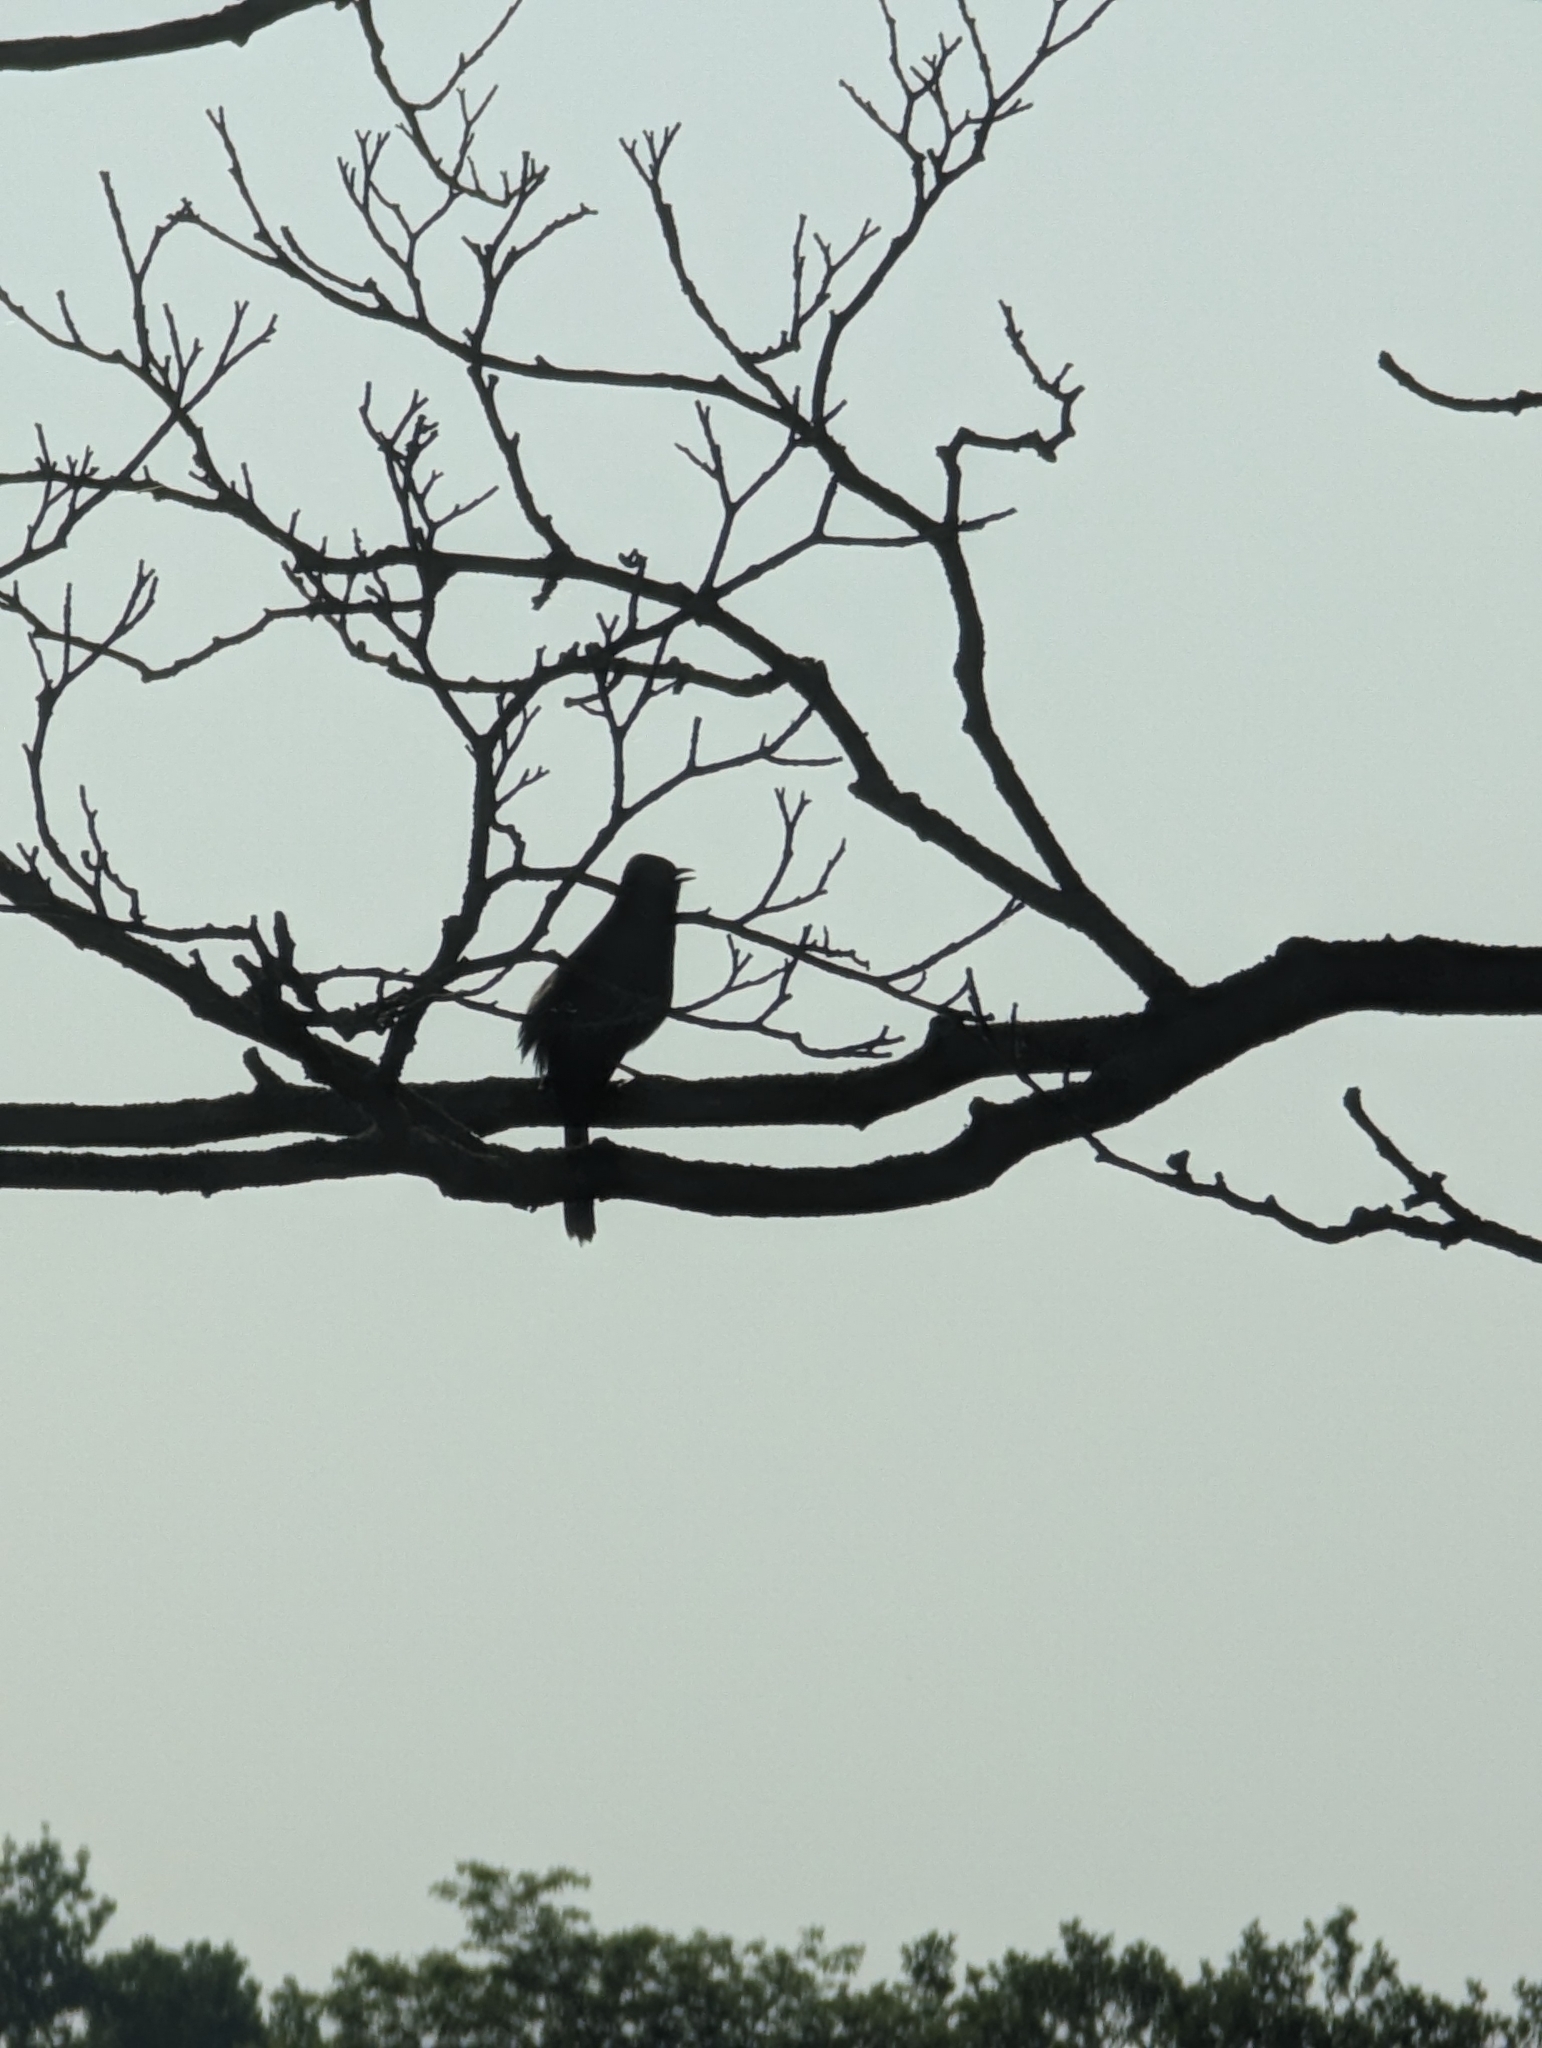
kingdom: Animalia
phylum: Chordata
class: Aves
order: Passeriformes
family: Mimidae
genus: Dumetella
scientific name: Dumetella carolinensis
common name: Gray catbird
